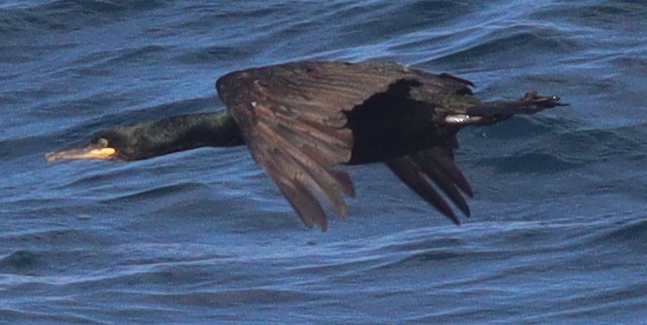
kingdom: Animalia
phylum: Chordata
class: Aves
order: Suliformes
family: Phalacrocoracidae
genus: Phalacrocorax
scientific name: Phalacrocorax aristotelis
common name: European shag
